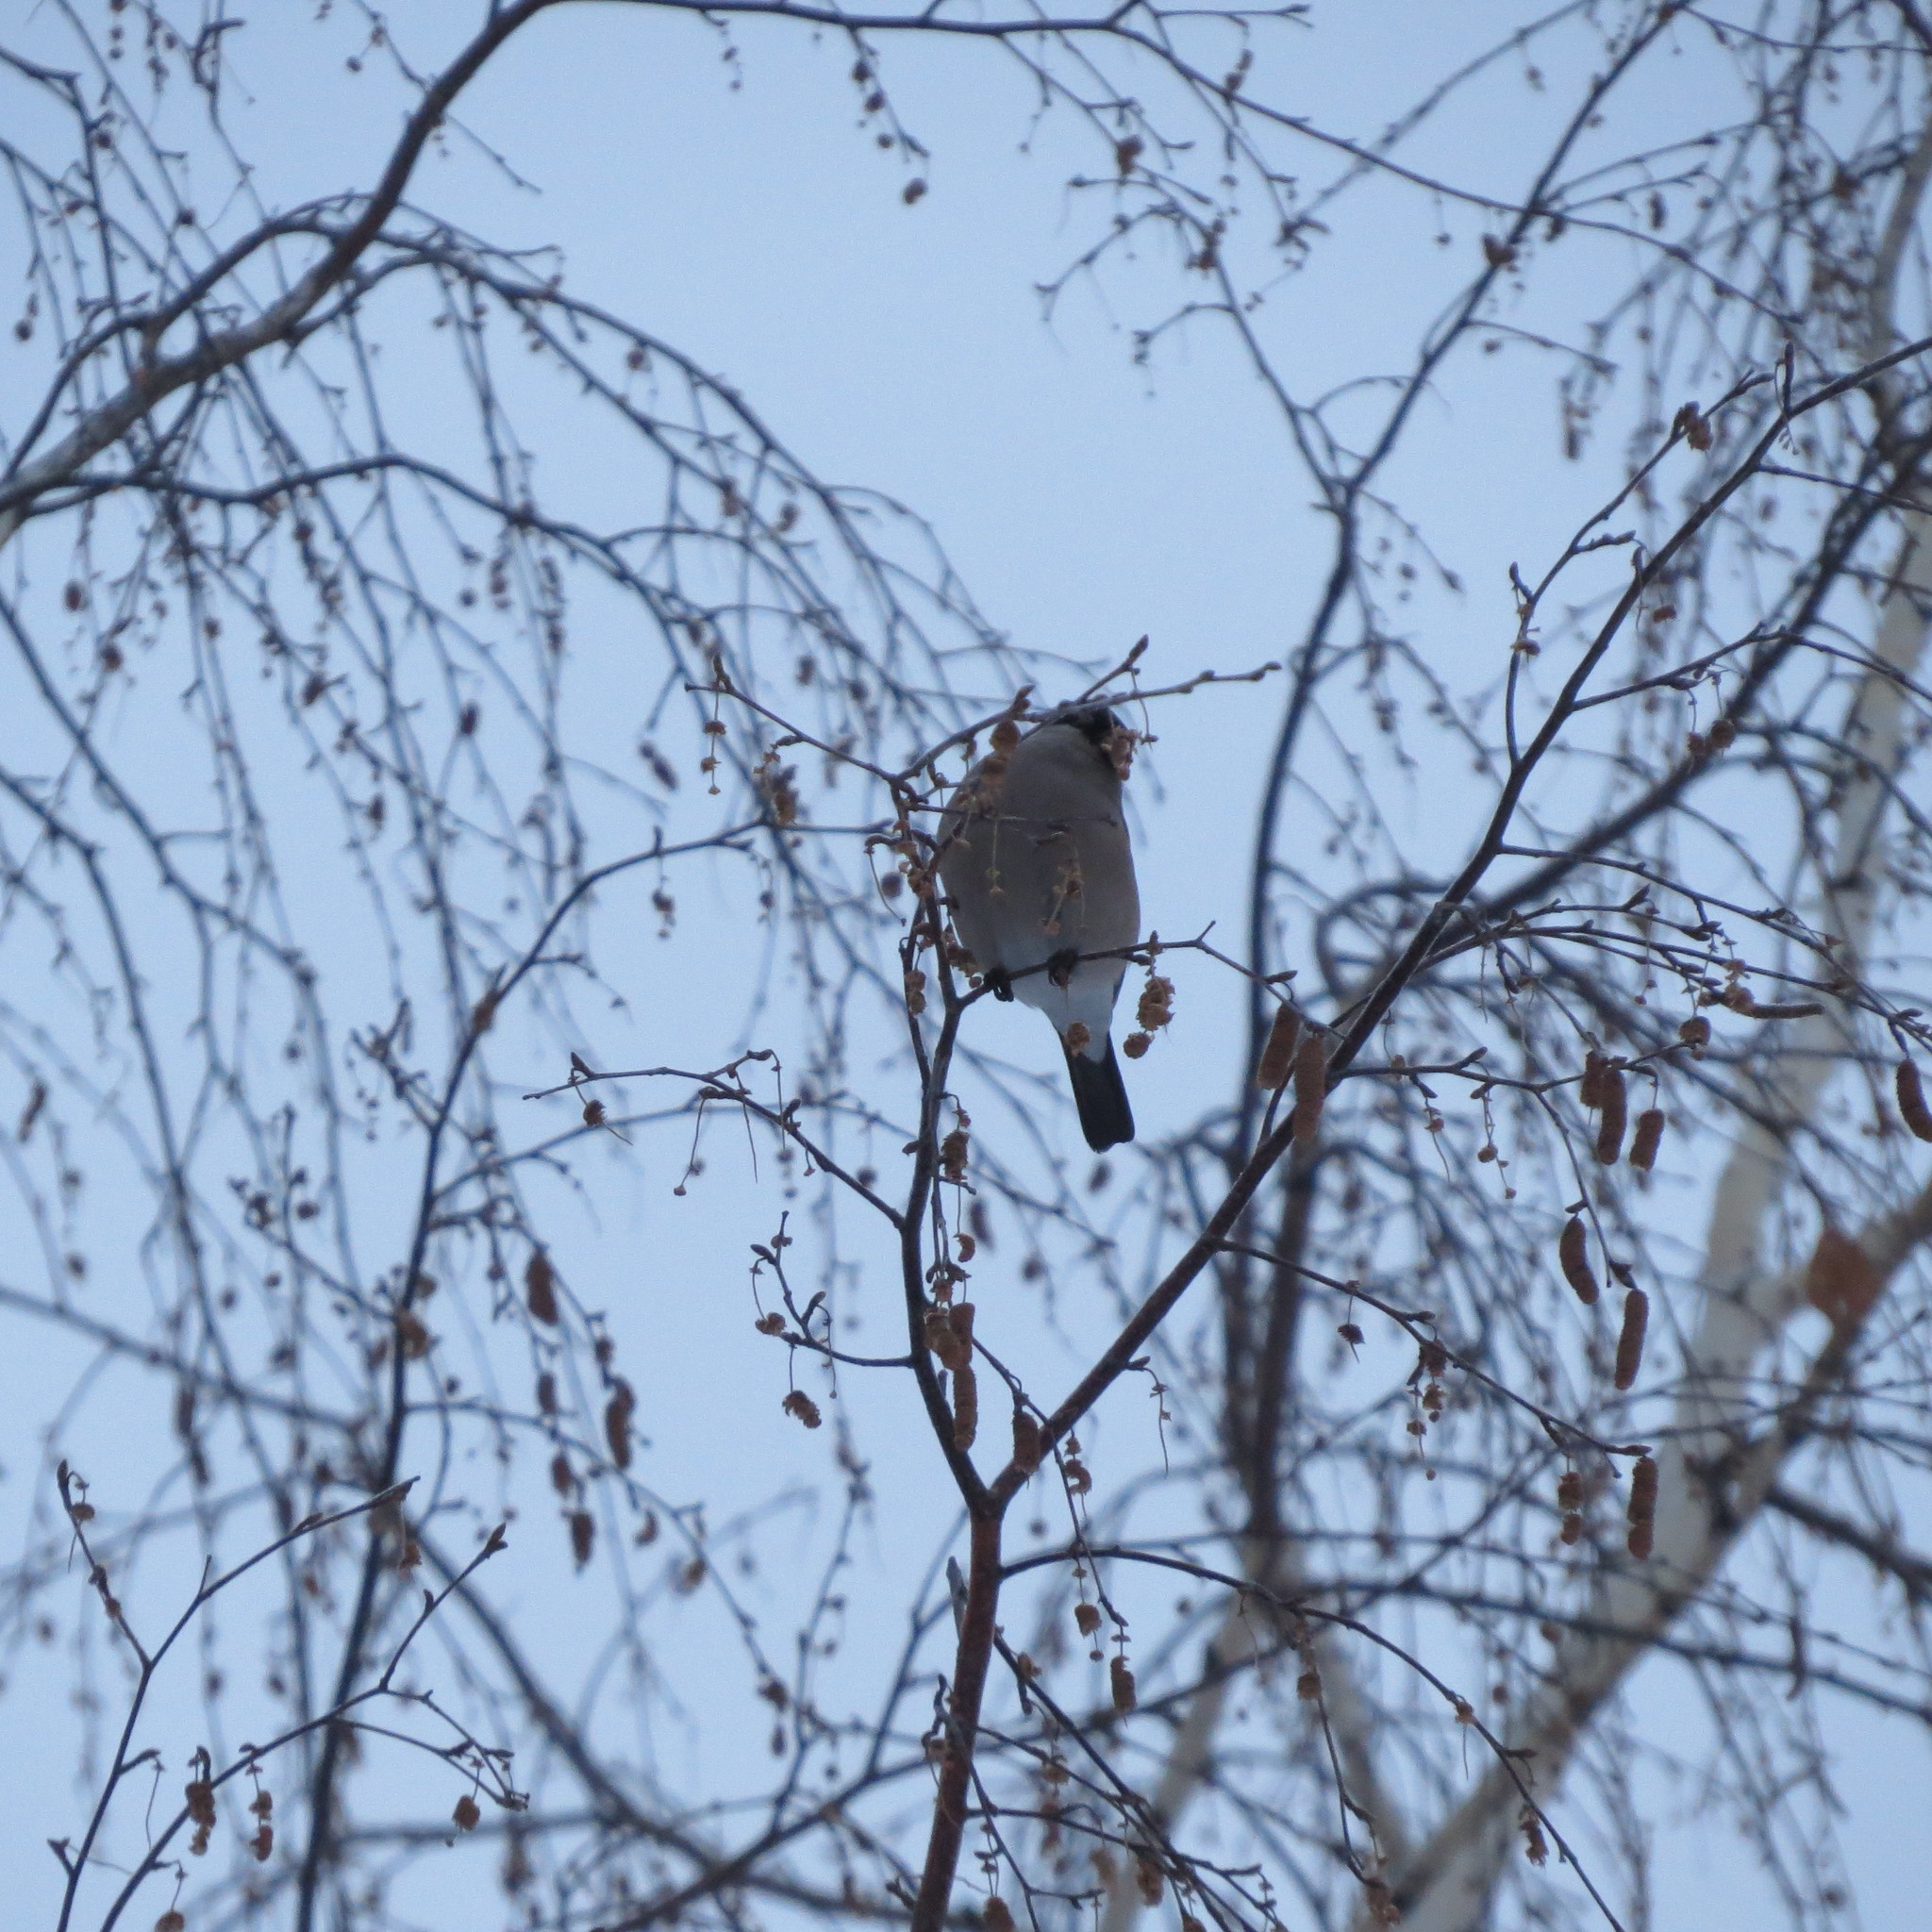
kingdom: Animalia
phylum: Chordata
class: Aves
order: Passeriformes
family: Fringillidae
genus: Pyrrhula
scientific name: Pyrrhula pyrrhula
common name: Eurasian bullfinch
